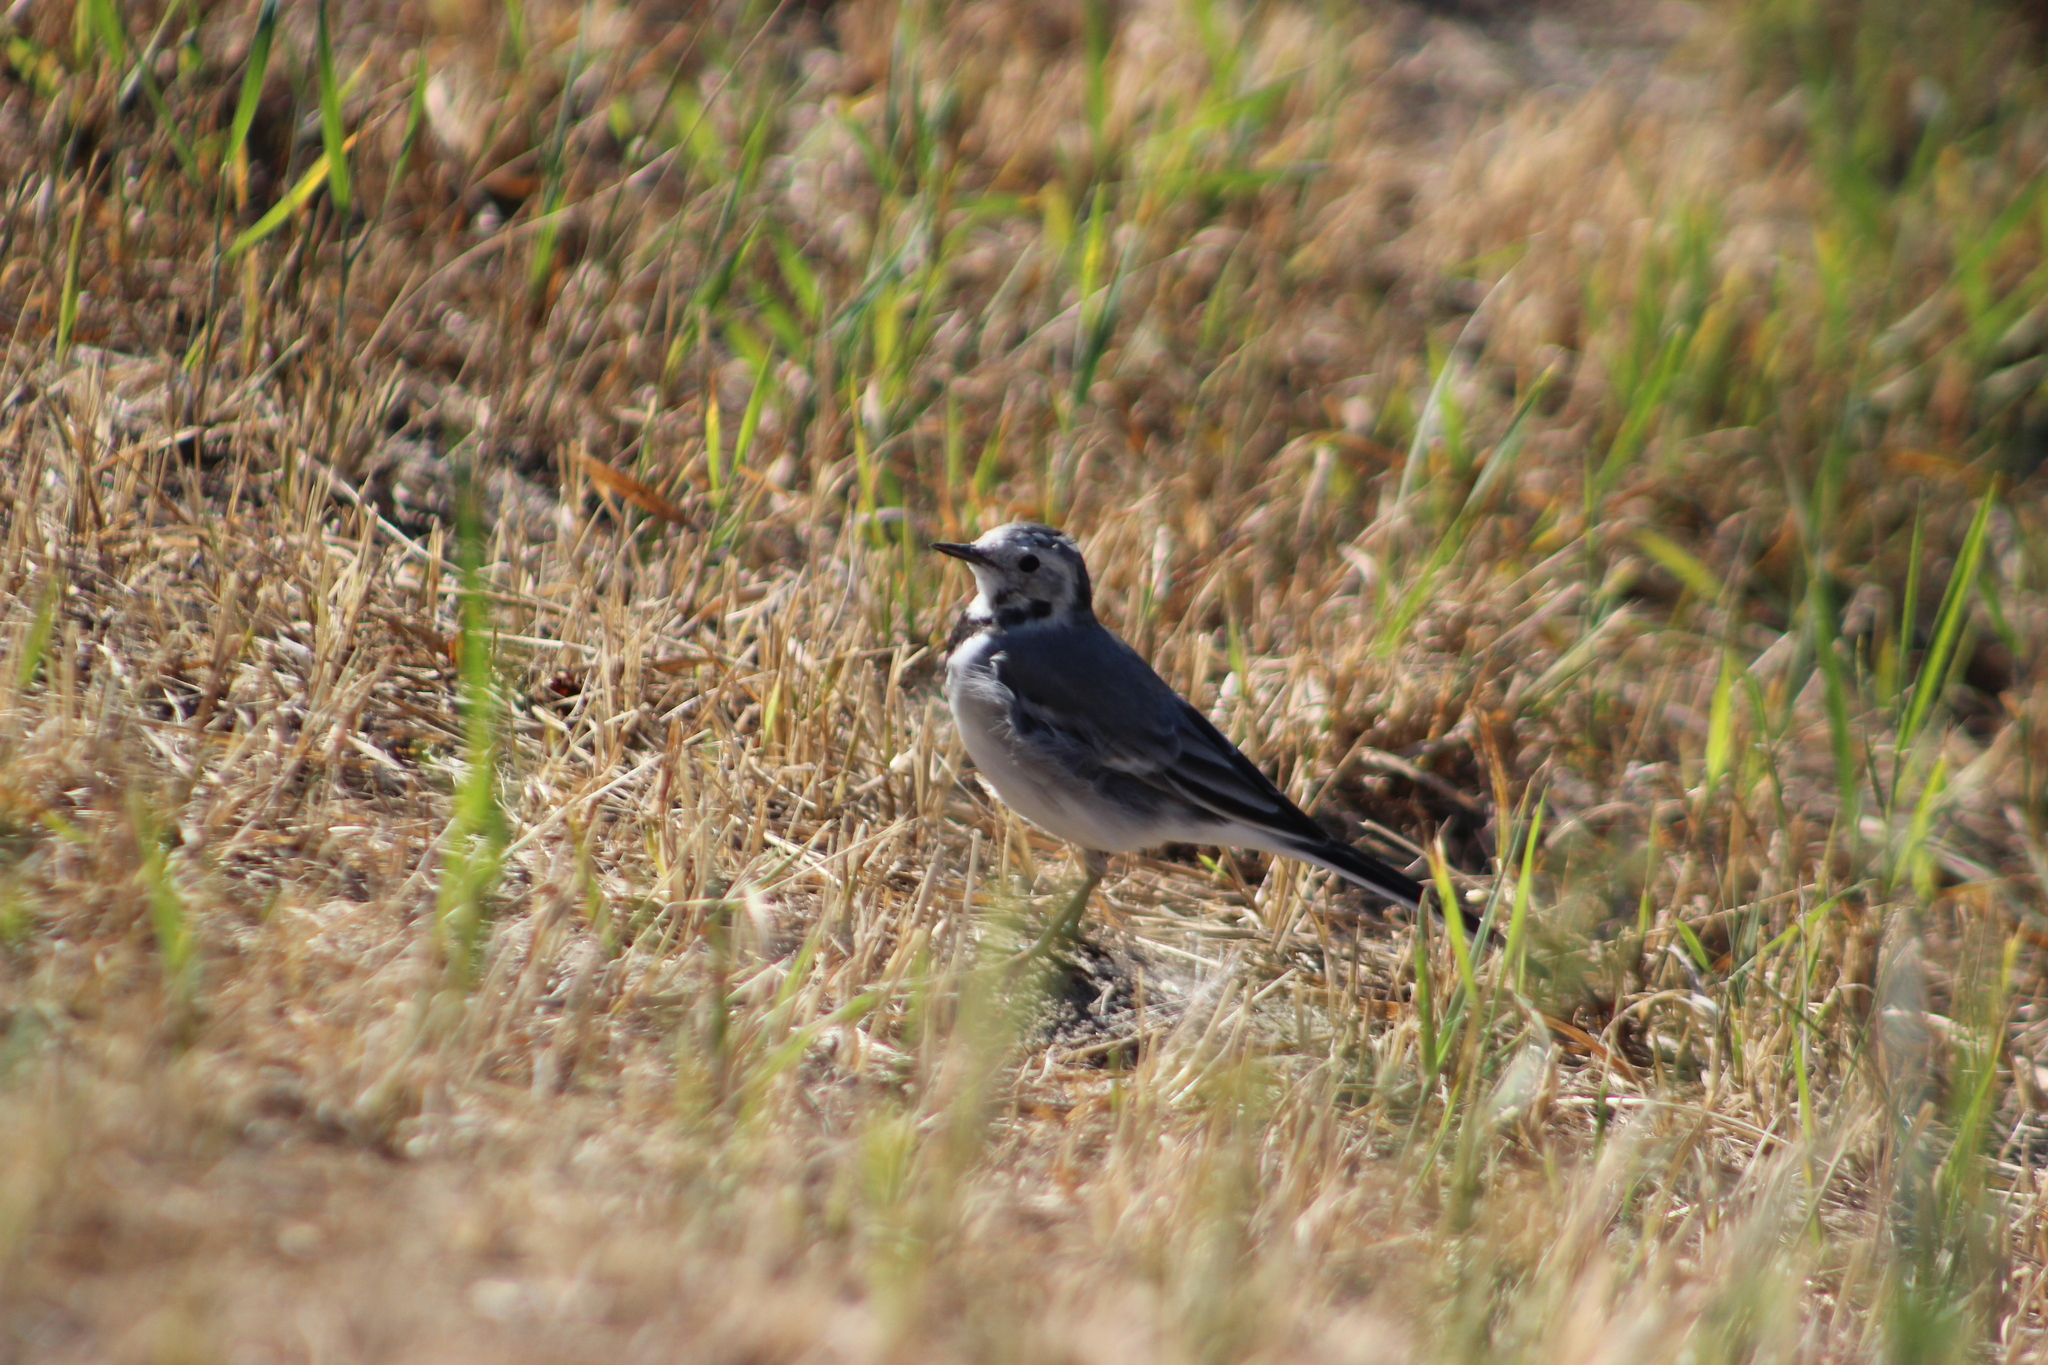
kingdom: Animalia
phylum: Chordata
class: Aves
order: Passeriformes
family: Motacillidae
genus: Motacilla
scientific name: Motacilla alba
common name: White wagtail
